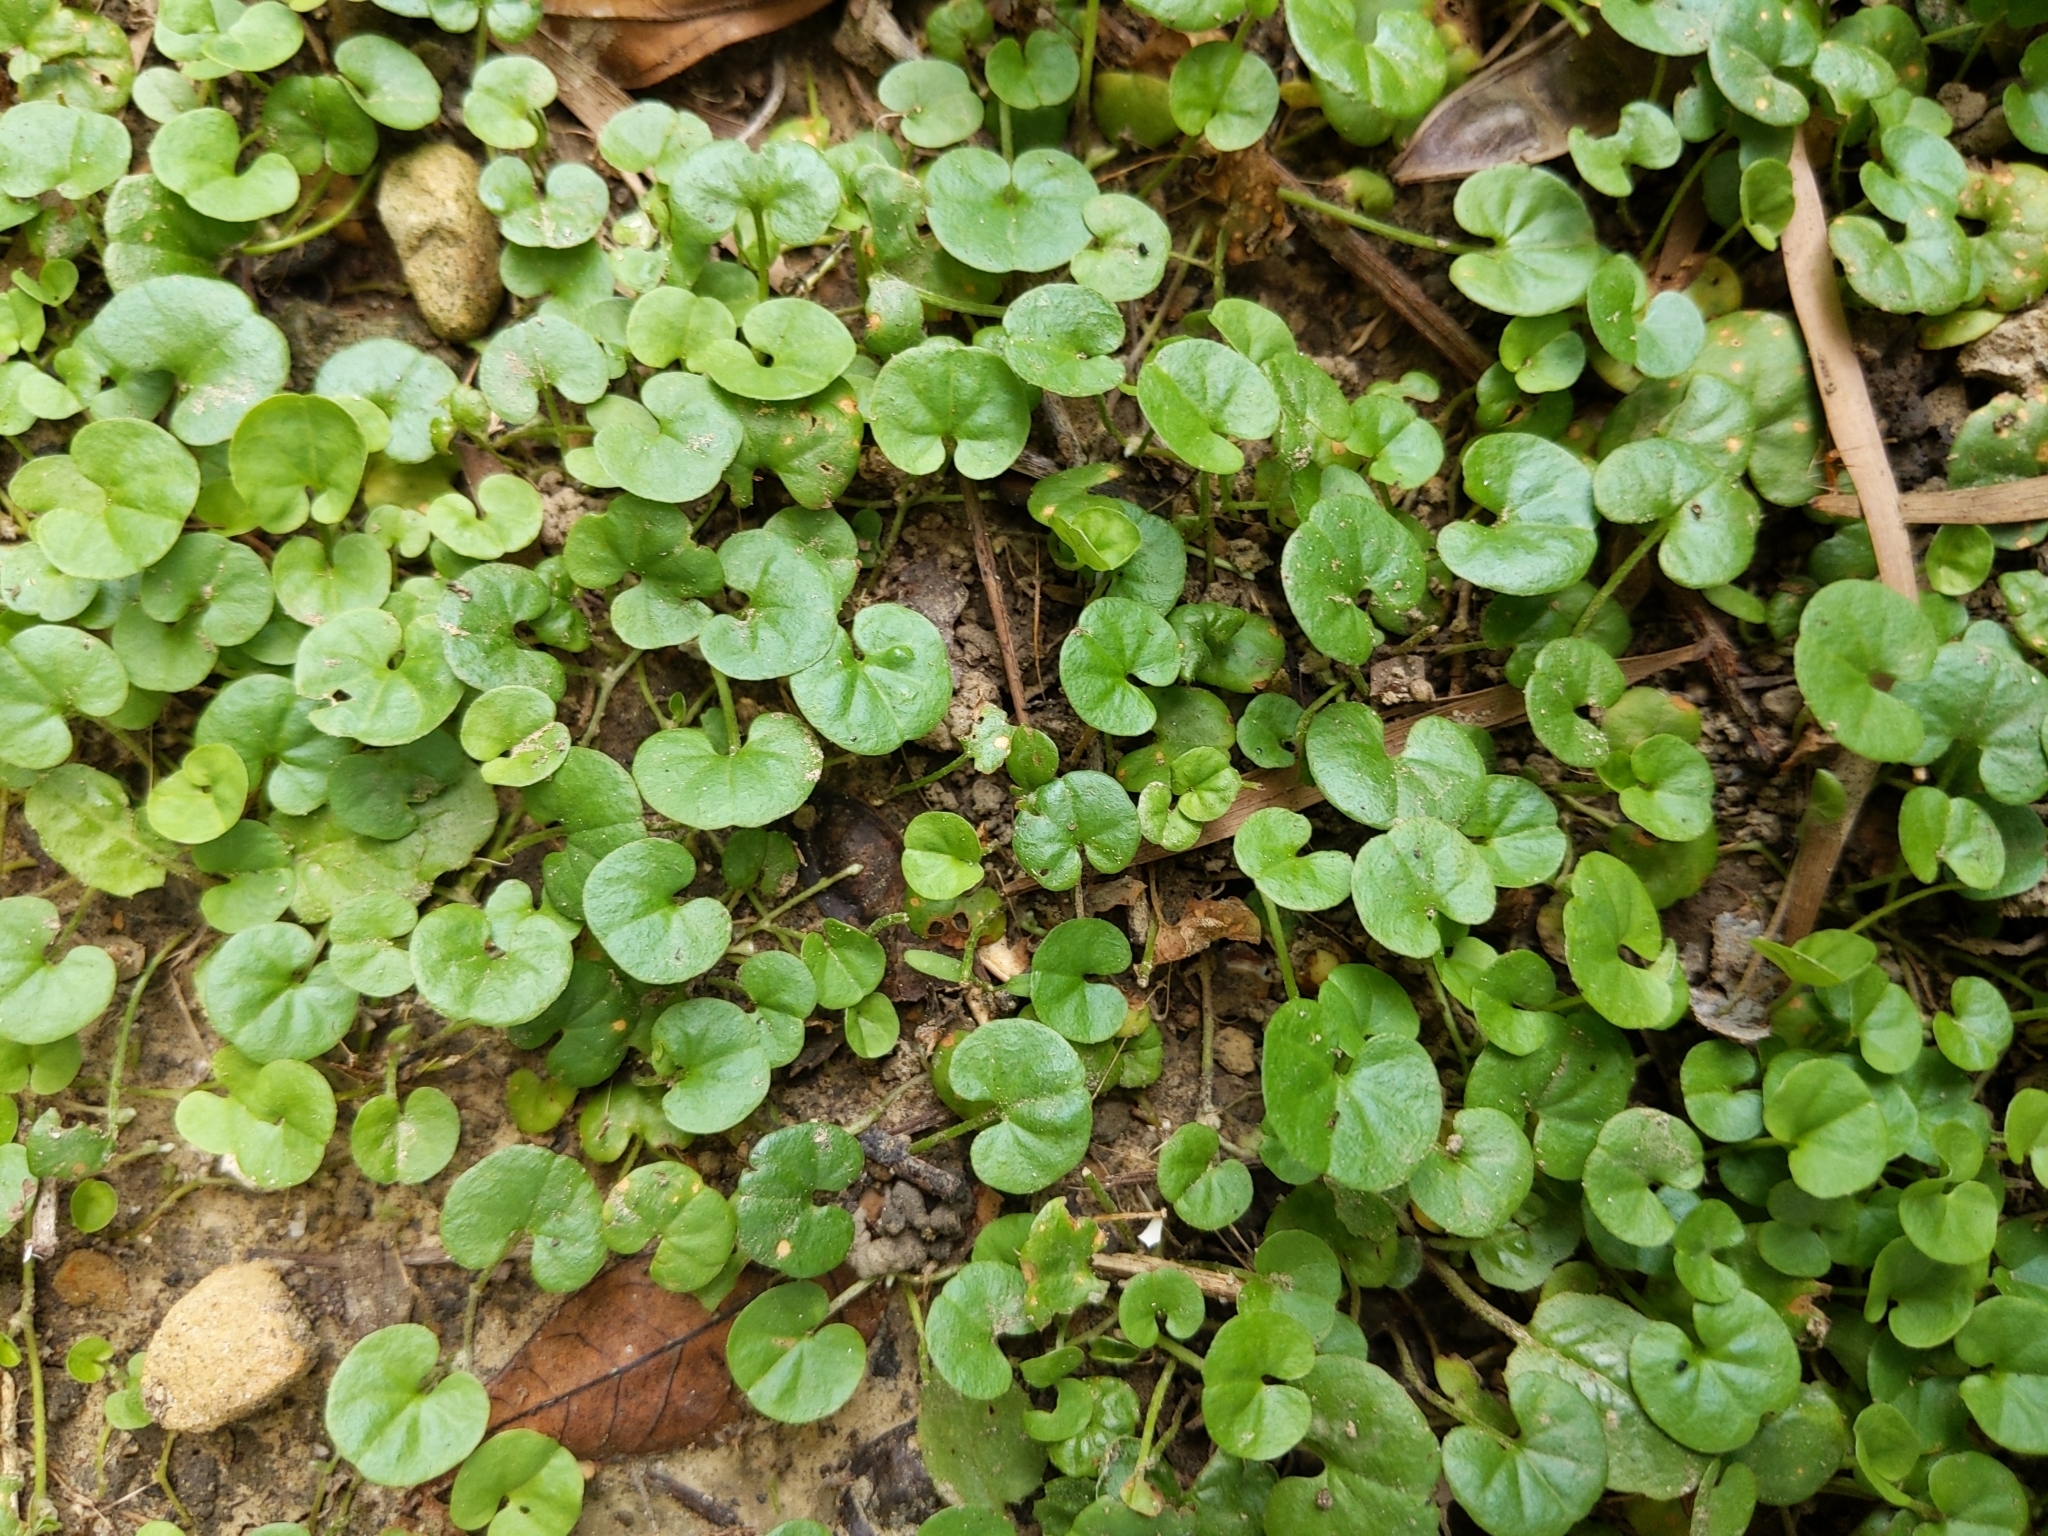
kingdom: Plantae
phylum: Tracheophyta
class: Magnoliopsida
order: Solanales
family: Convolvulaceae
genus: Dichondra
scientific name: Dichondra micrantha
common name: Kidneyweed
